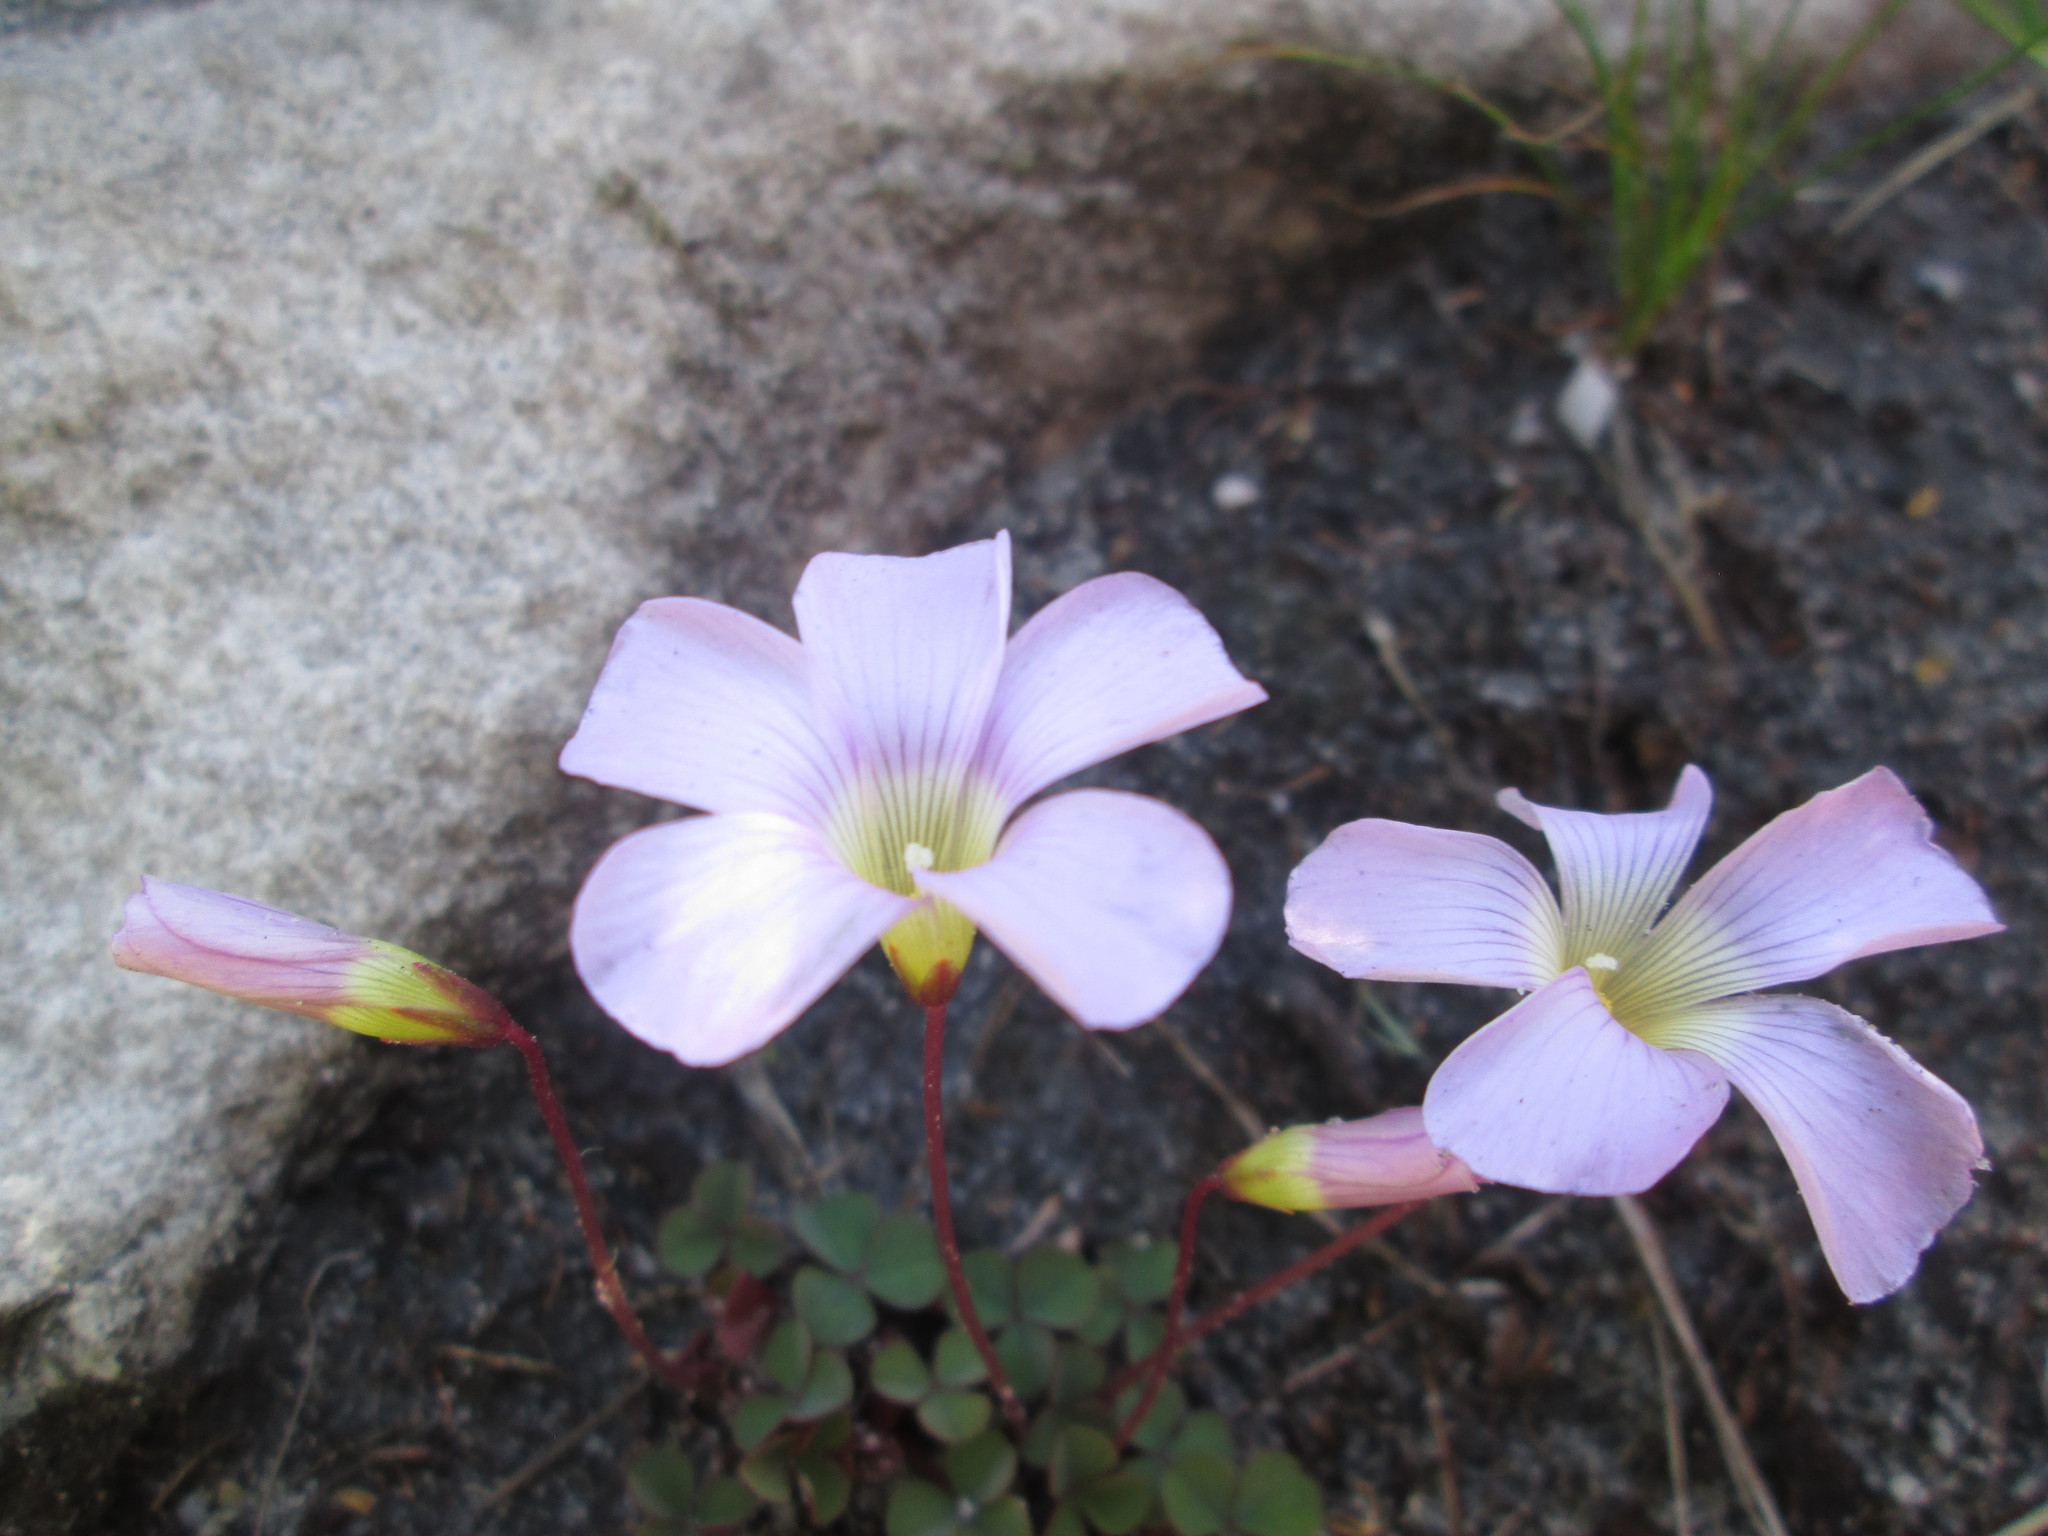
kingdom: Plantae
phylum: Tracheophyta
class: Magnoliopsida
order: Oxalidales
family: Oxalidaceae
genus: Oxalis
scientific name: Oxalis commutata
